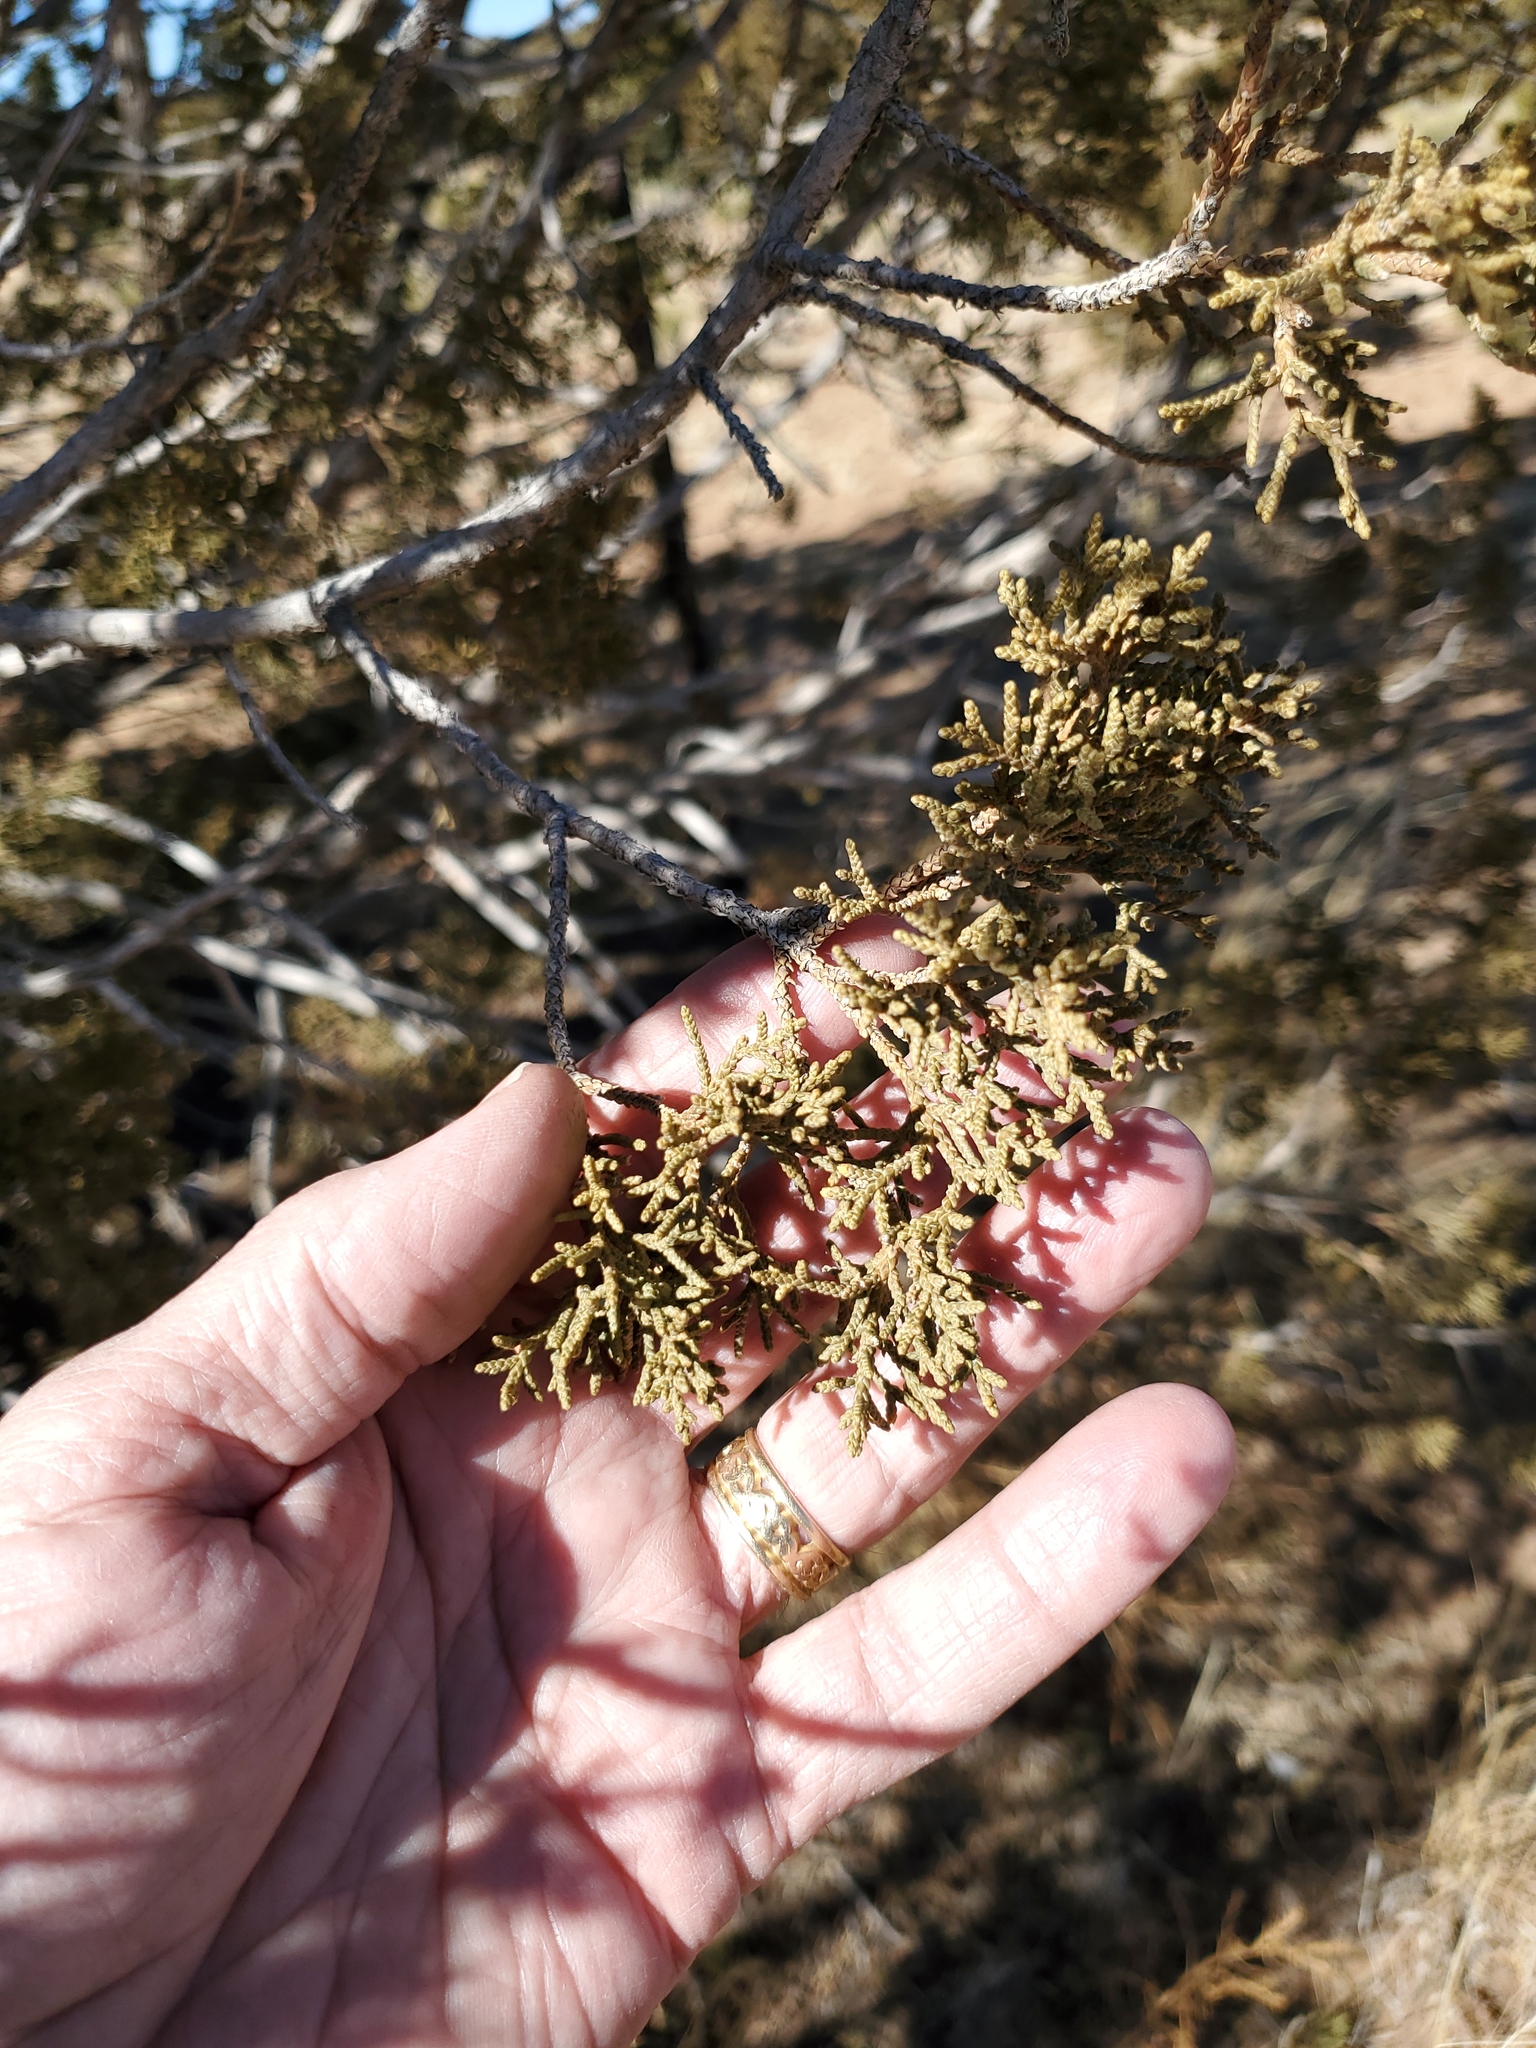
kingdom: Plantae
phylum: Tracheophyta
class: Pinopsida
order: Pinales
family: Cupressaceae
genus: Juniperus
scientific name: Juniperus monosperma
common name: One-seed juniper
